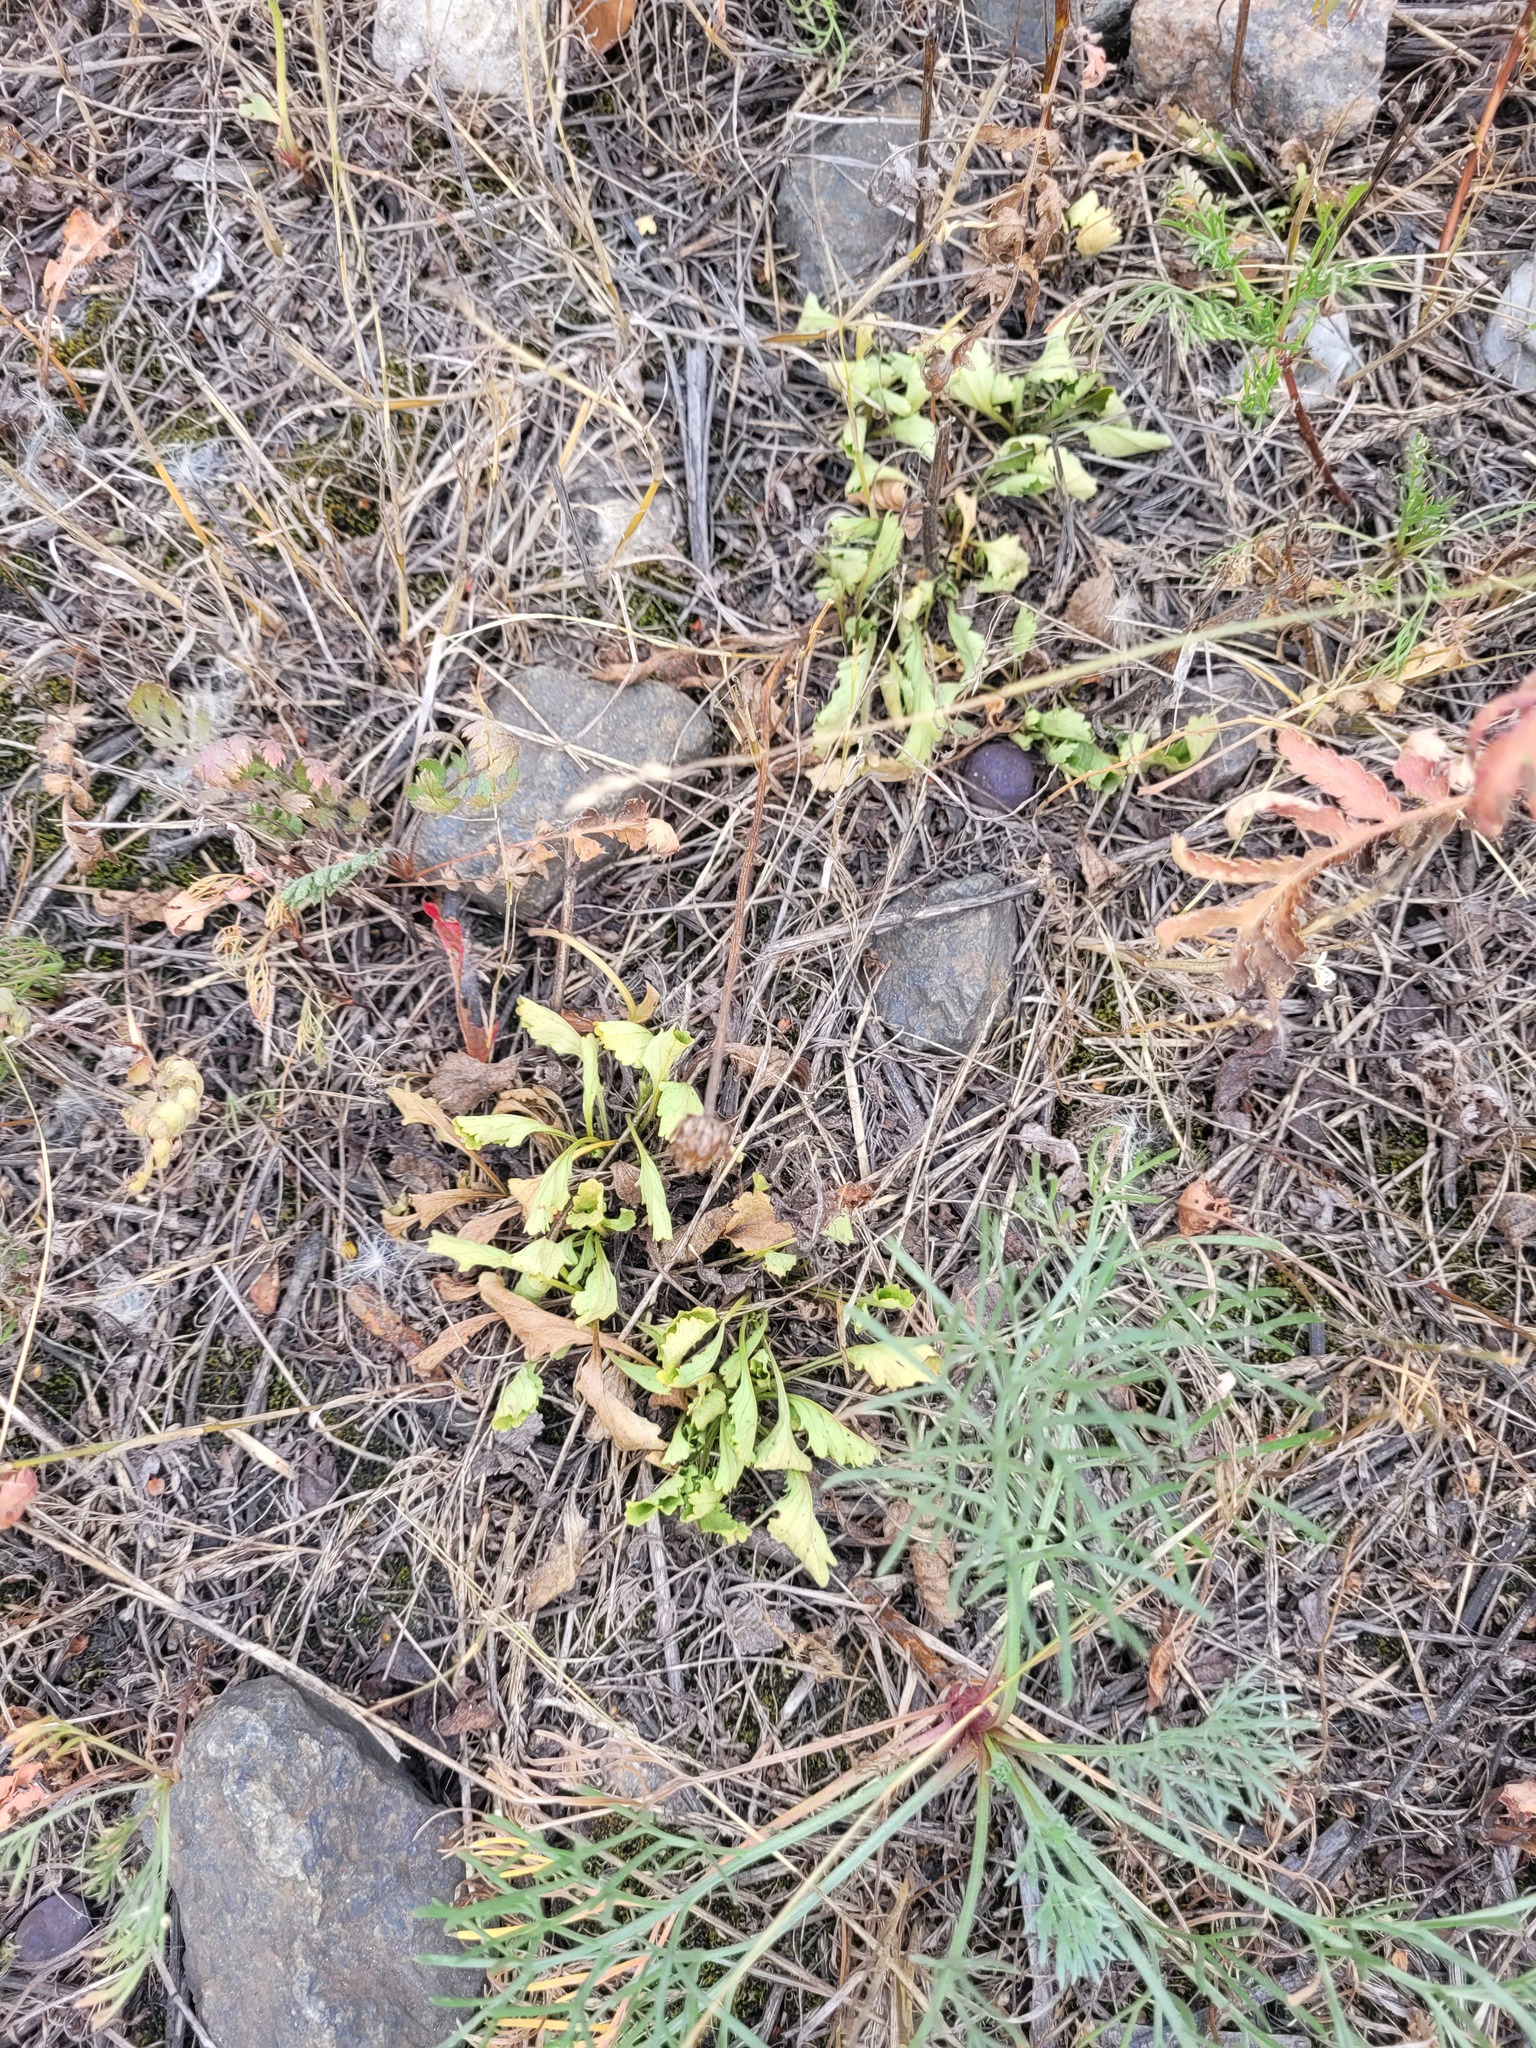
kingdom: Plantae
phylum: Tracheophyta
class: Magnoliopsida
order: Asterales
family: Asteraceae
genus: Leucanthemum
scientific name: Leucanthemum vulgare
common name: Oxeye daisy
